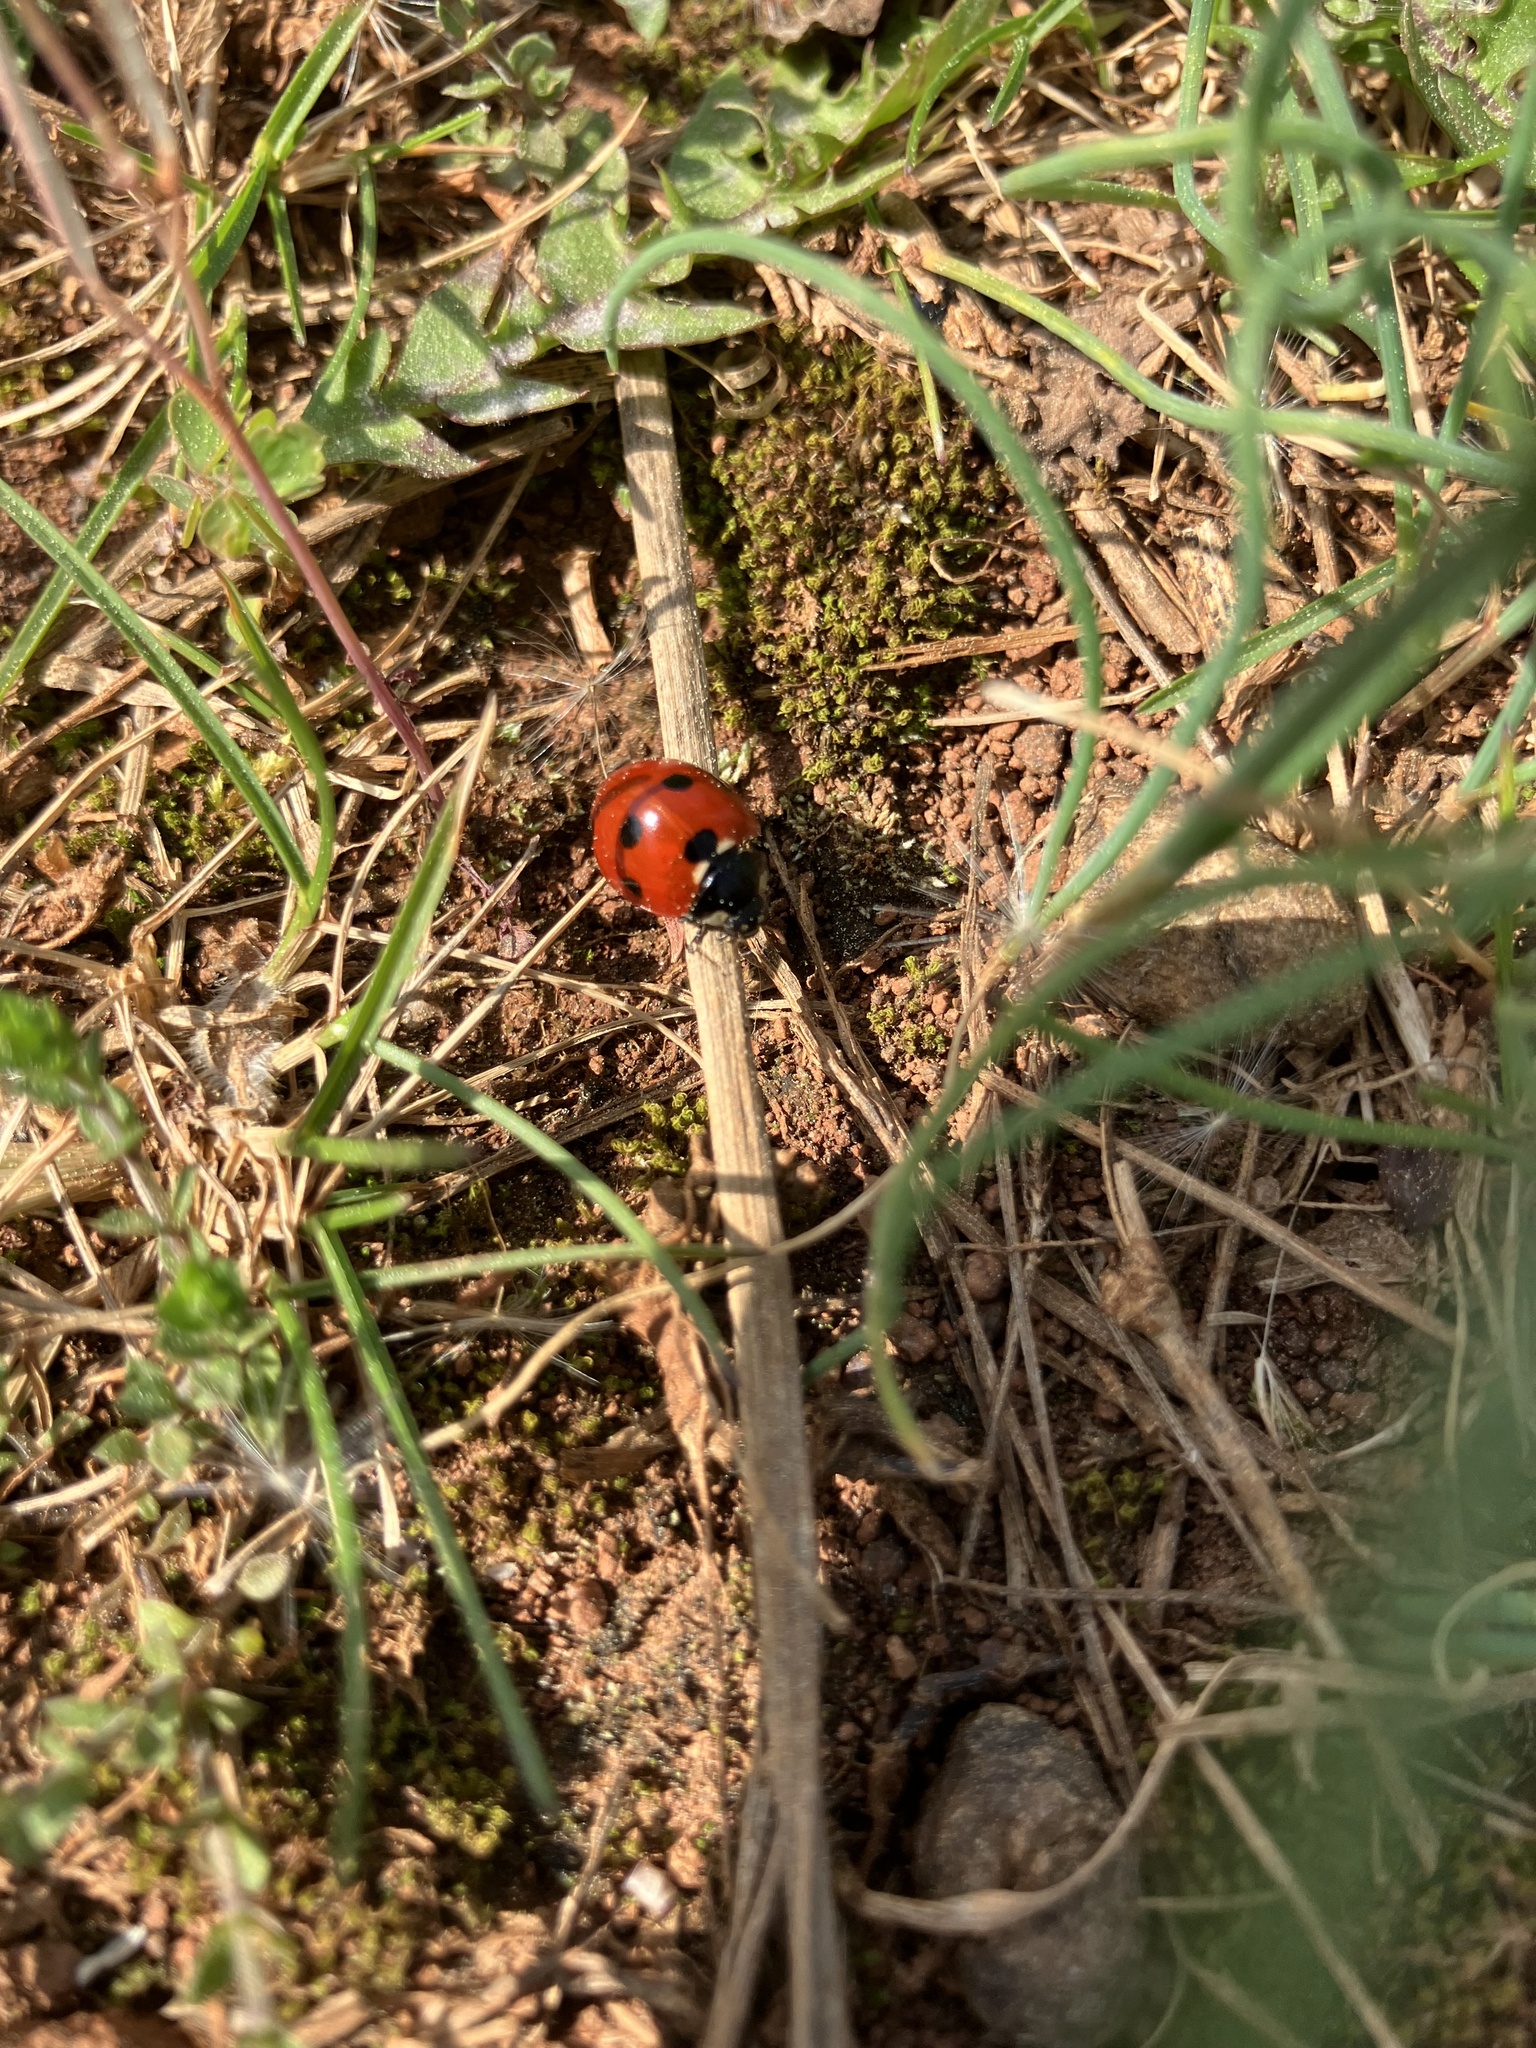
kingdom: Animalia
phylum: Arthropoda
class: Insecta
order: Coleoptera
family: Coccinellidae
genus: Coccinella
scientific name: Coccinella septempunctata
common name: Sevenspotted lady beetle
